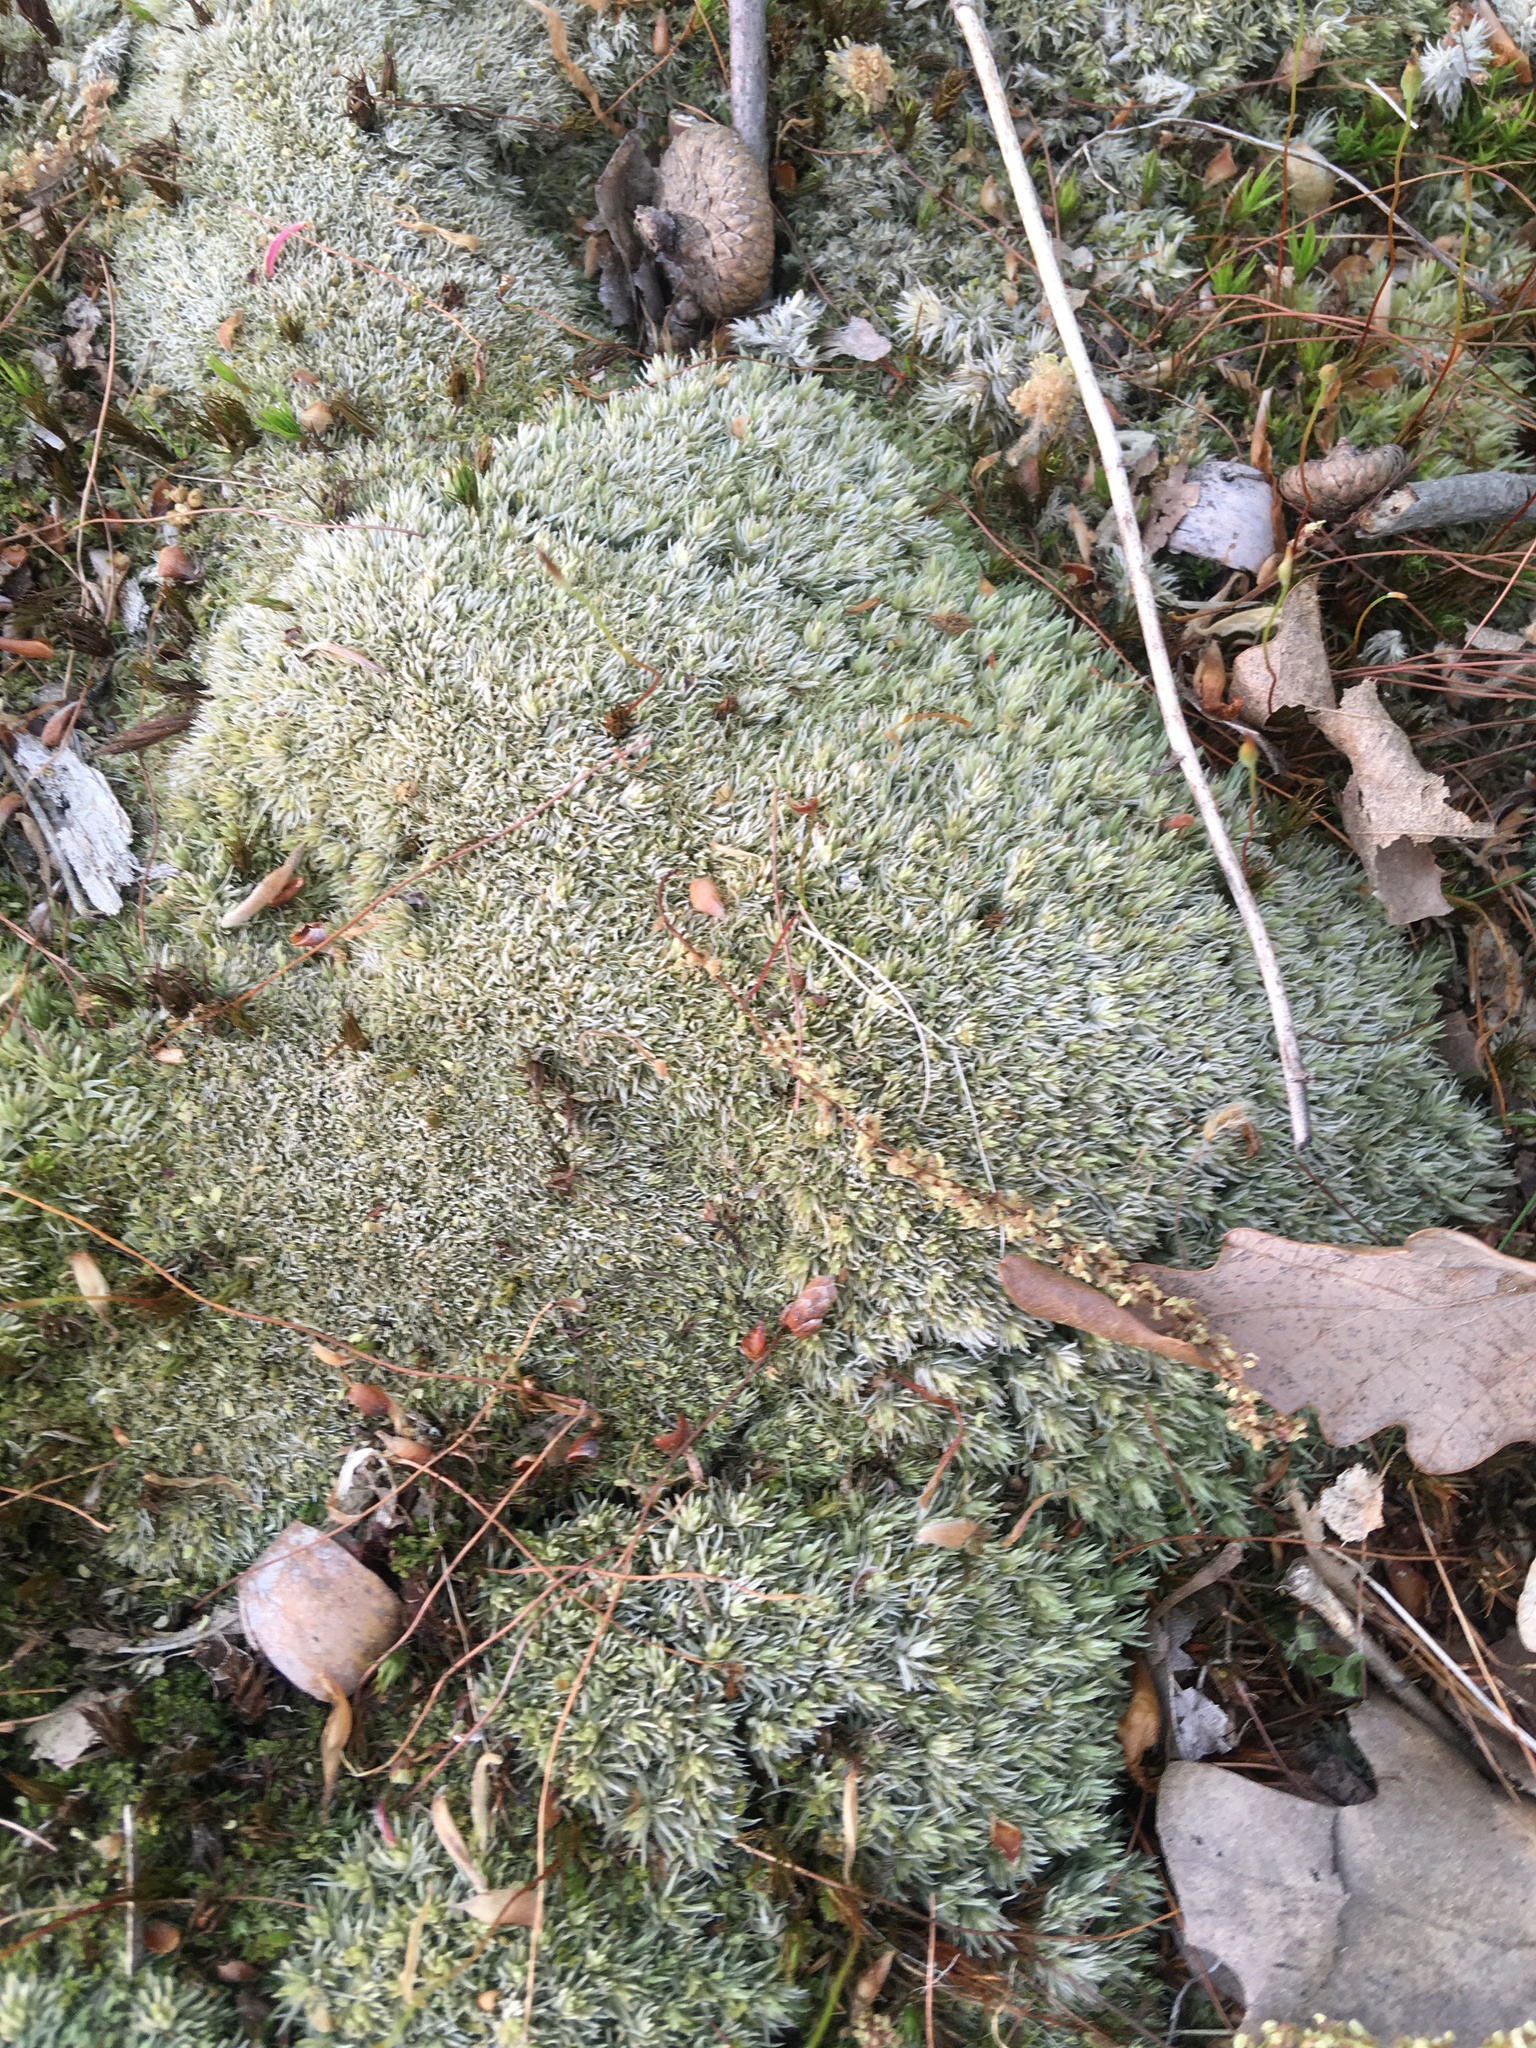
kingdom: Plantae
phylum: Bryophyta
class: Bryopsida
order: Dicranales
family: Leucobryaceae
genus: Leucobryum
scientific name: Leucobryum glaucum
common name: Large white-moss
